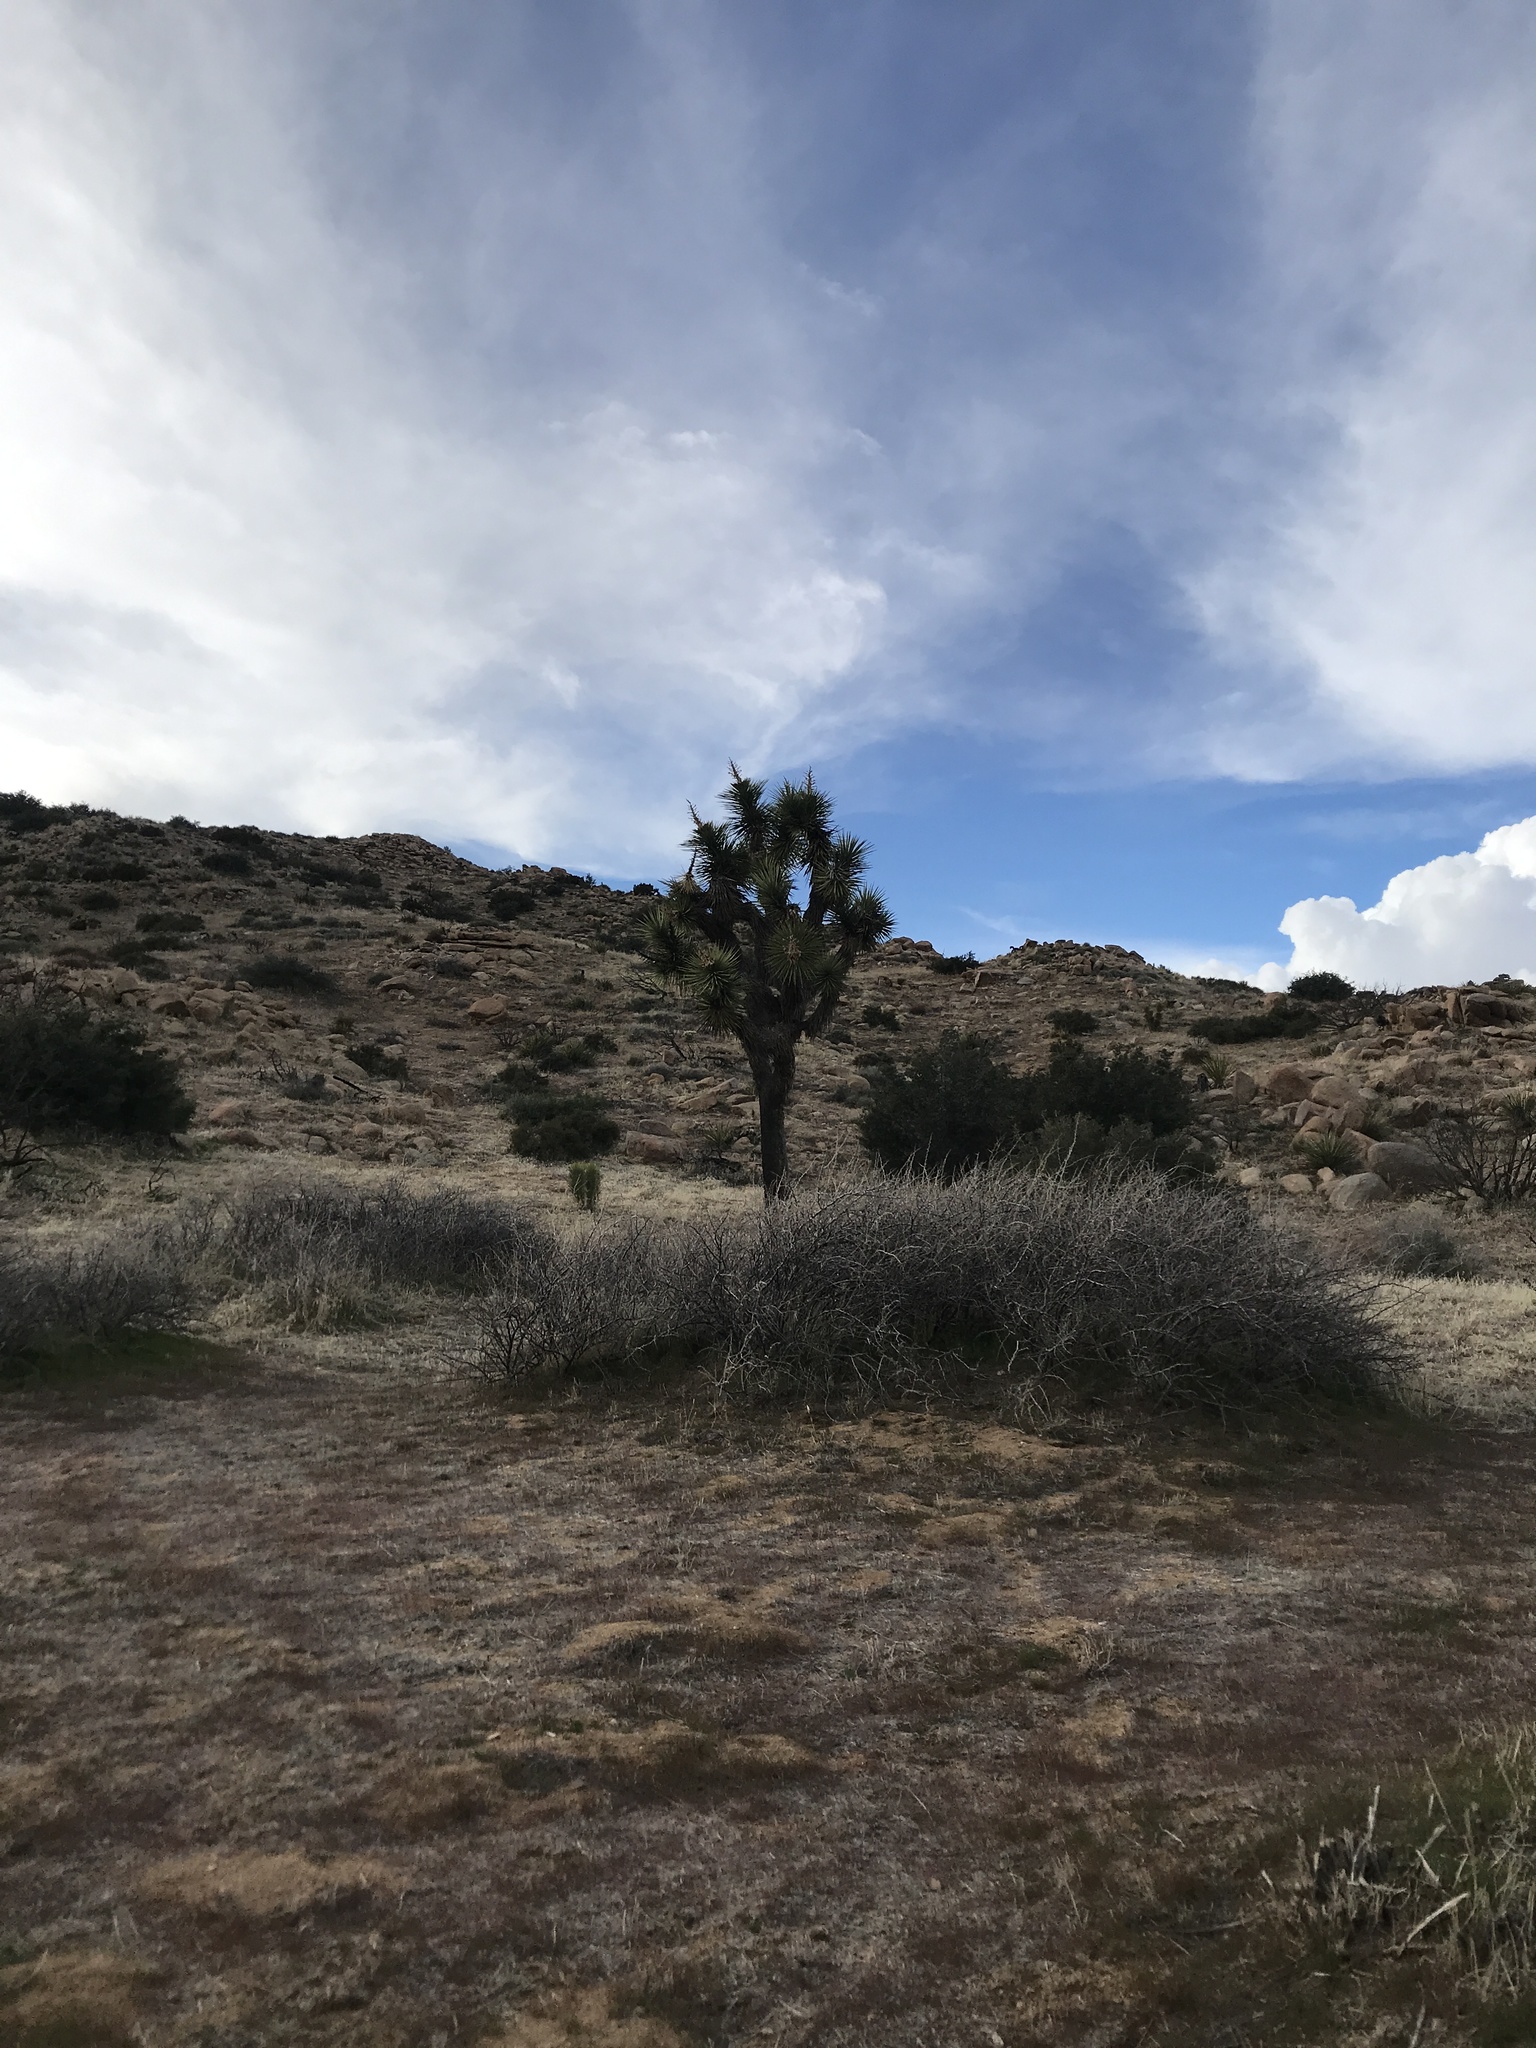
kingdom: Plantae
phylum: Tracheophyta
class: Liliopsida
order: Asparagales
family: Asparagaceae
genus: Yucca
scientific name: Yucca brevifolia
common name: Joshua tree
